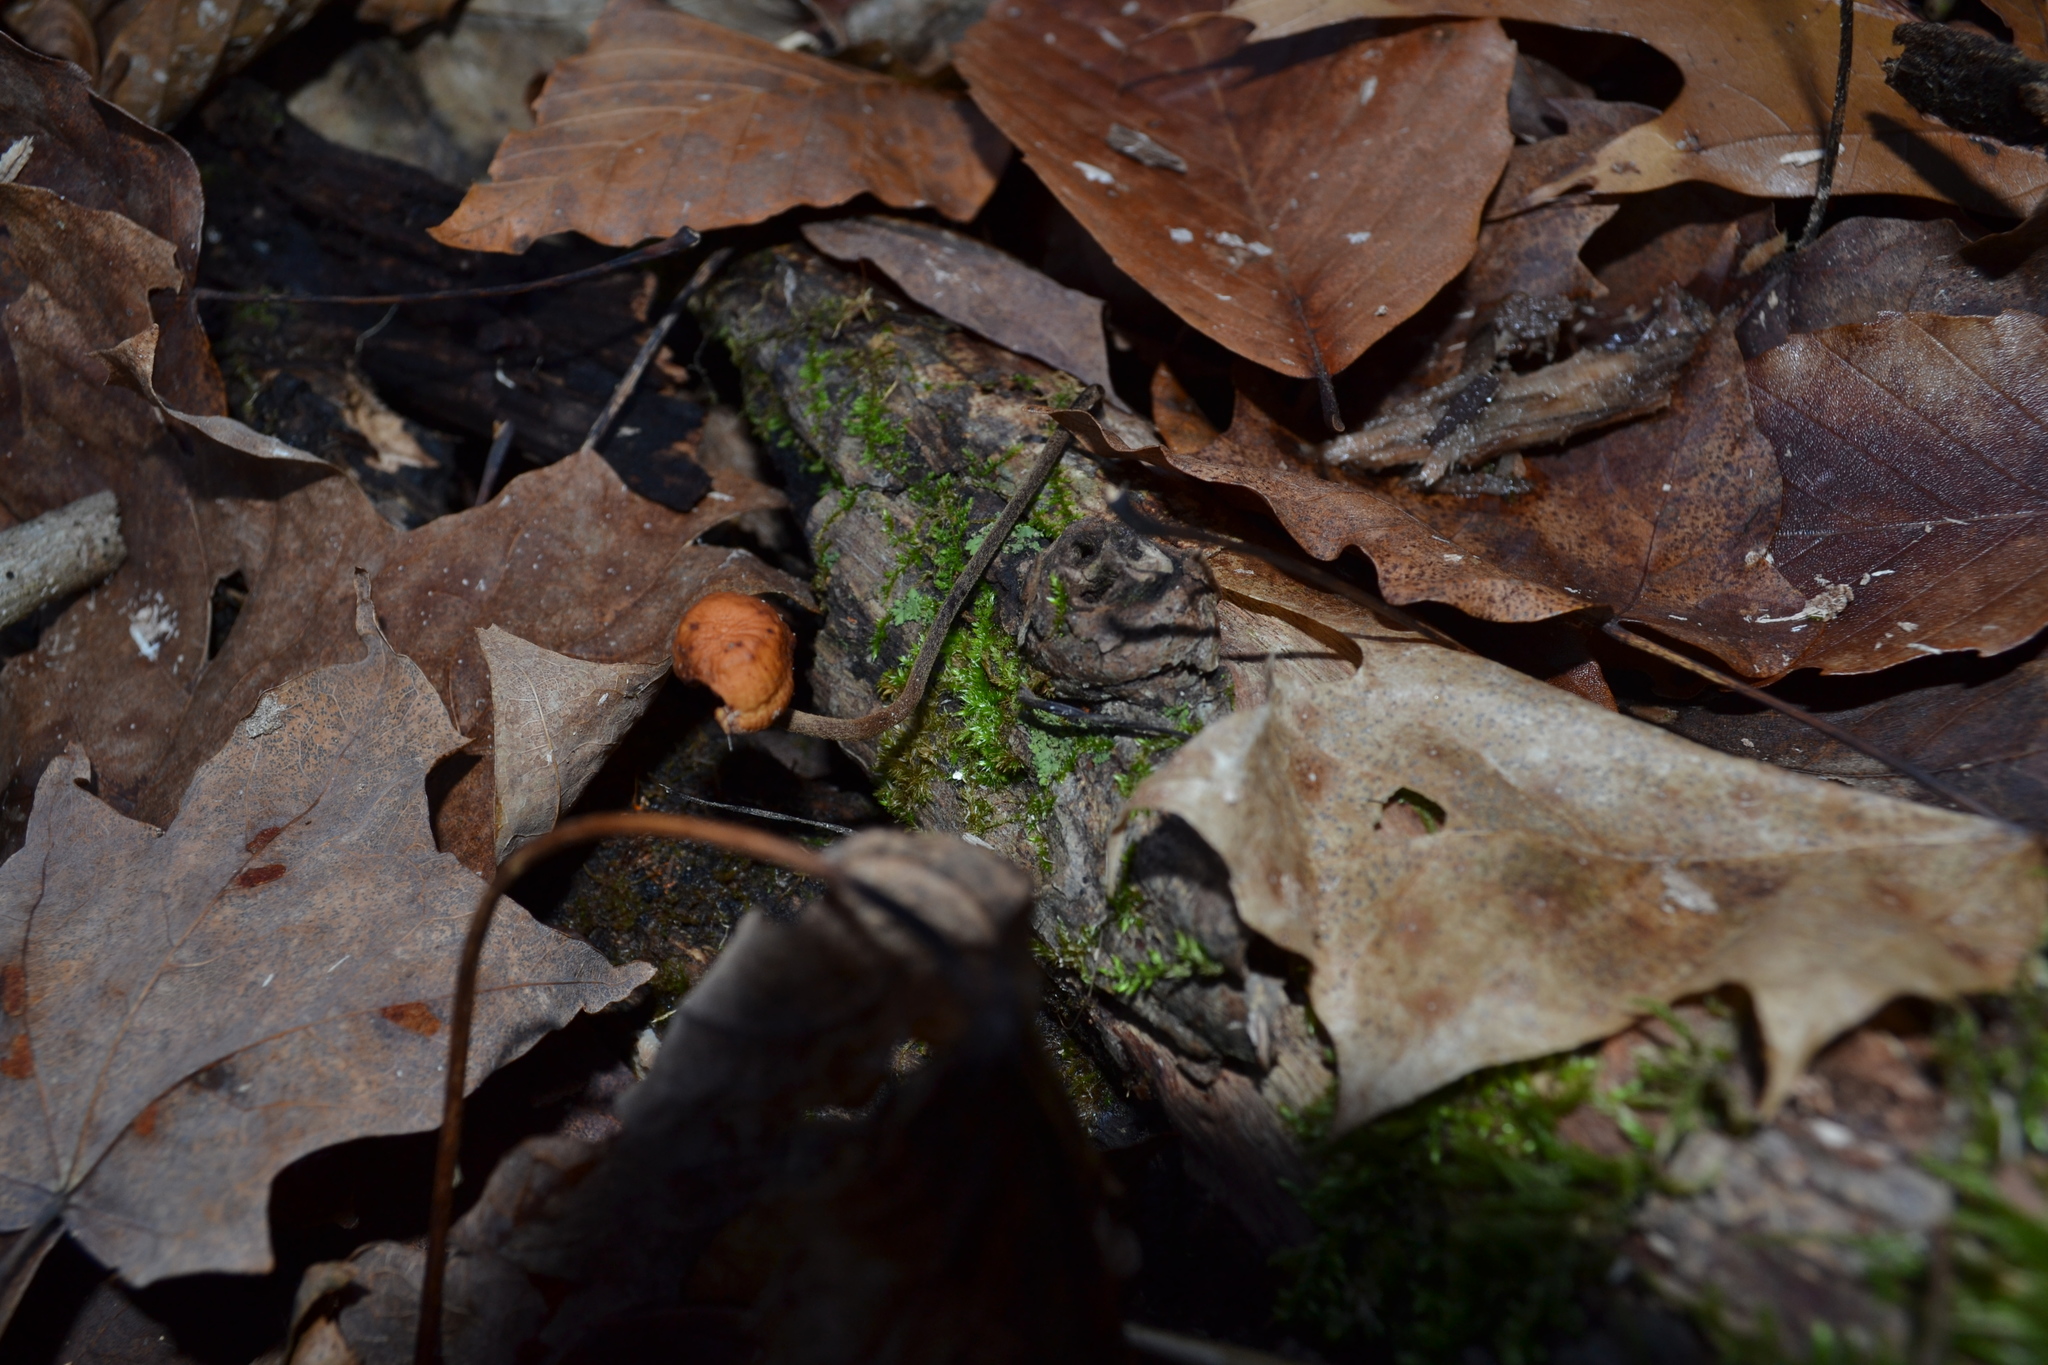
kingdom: Fungi
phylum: Basidiomycota
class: Agaricomycetes
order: Agaricales
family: Physalacriaceae
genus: Rhizomarasmius
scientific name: Rhizomarasmius pyrrhocephalus
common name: Hairy long stem marasmius
